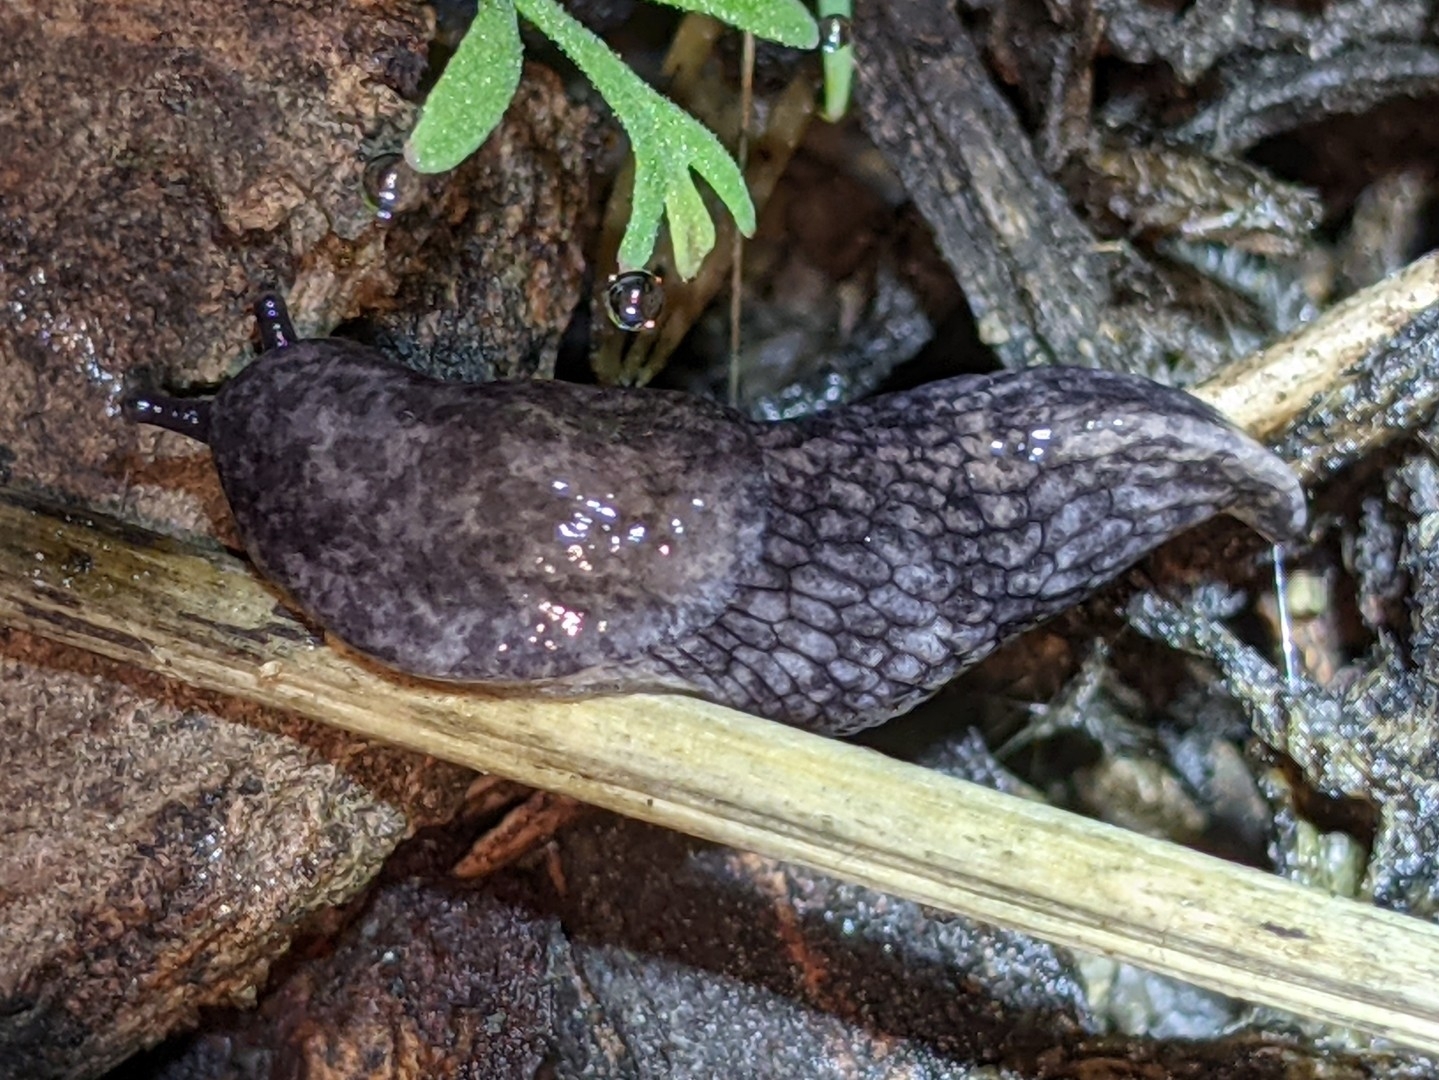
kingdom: Animalia
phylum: Mollusca
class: Gastropoda
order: Stylommatophora
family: Agriolimacidae
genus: Deroceras
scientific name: Deroceras reticulatum
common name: Gray field slug
